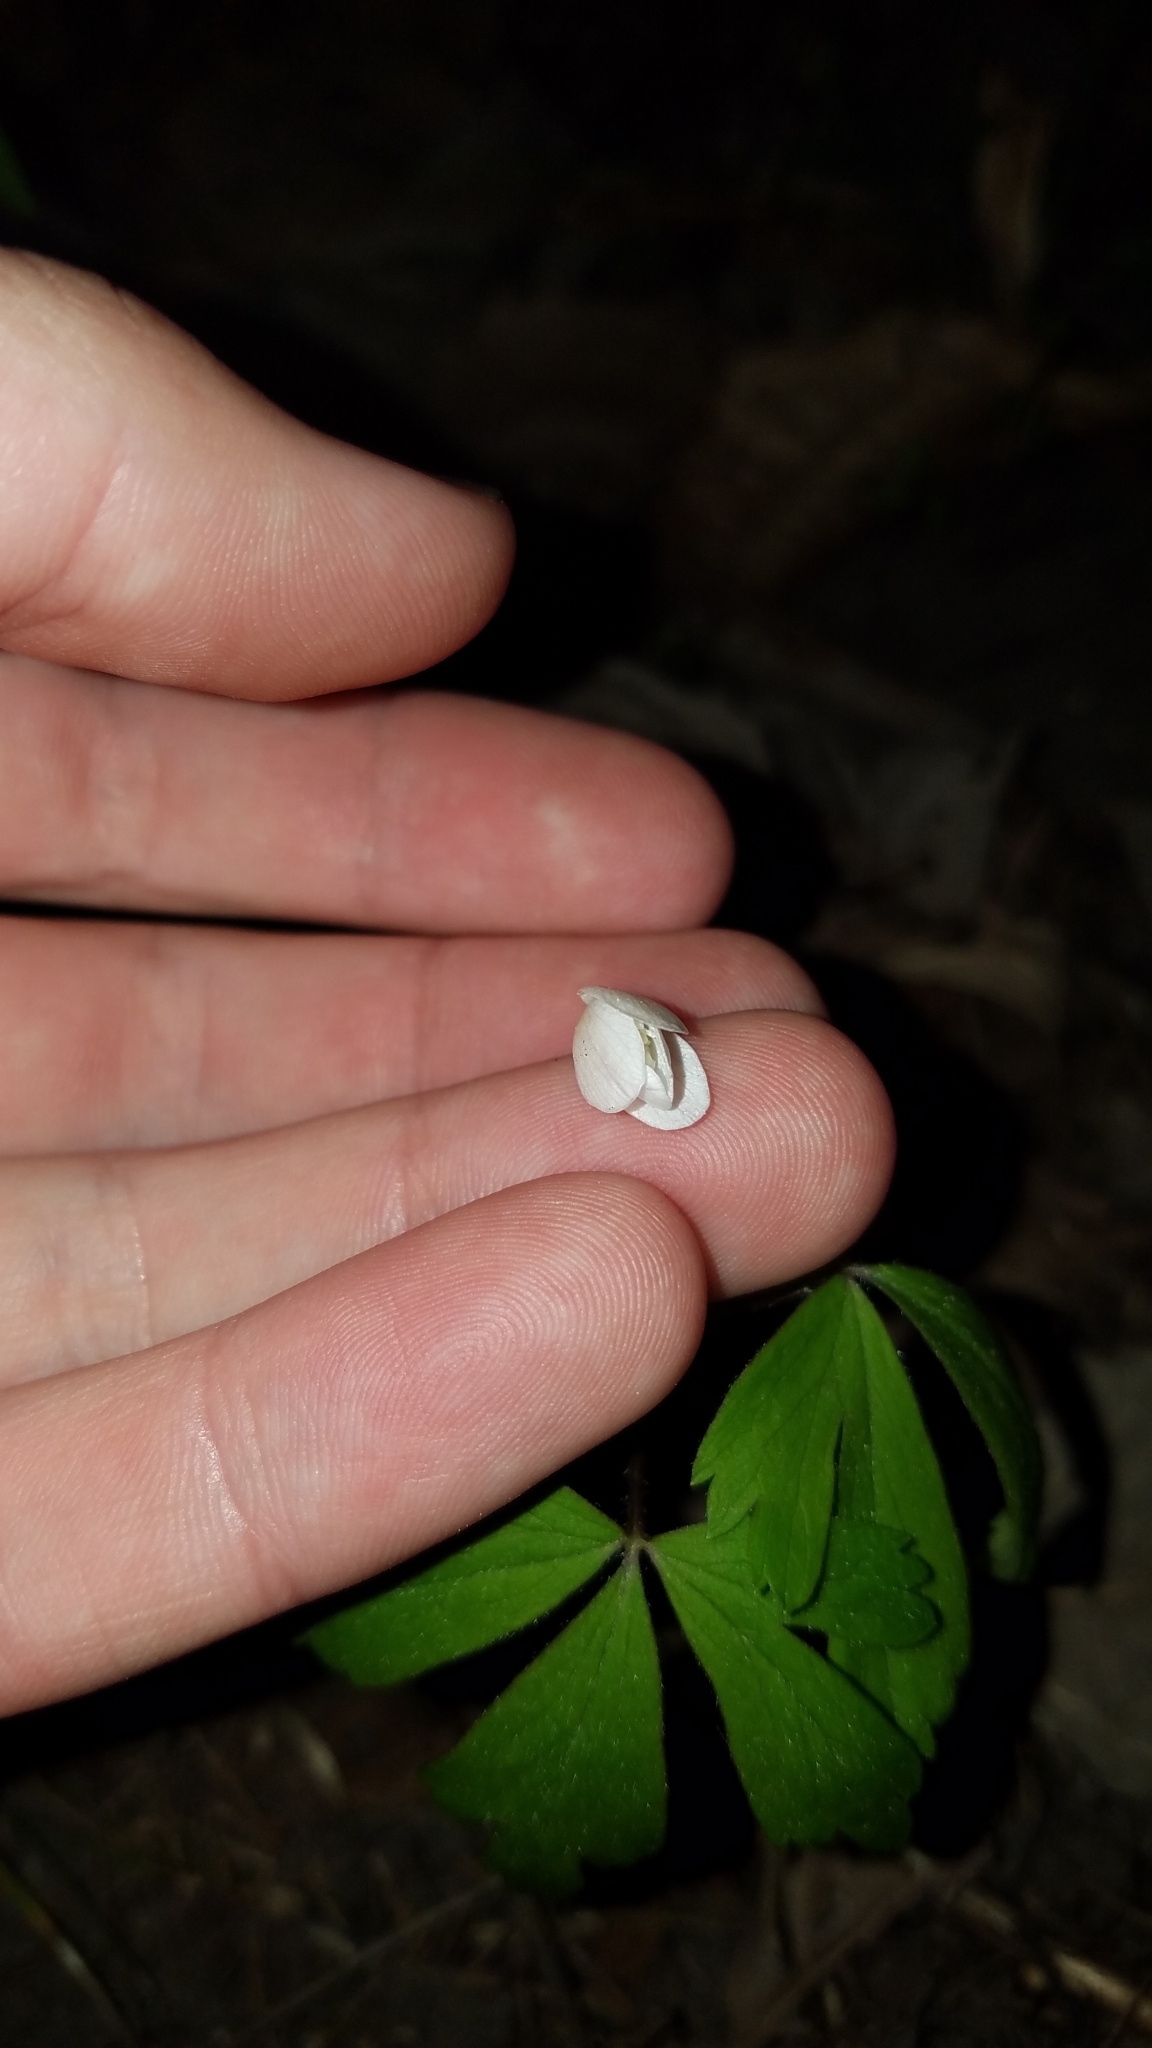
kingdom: Plantae
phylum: Tracheophyta
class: Magnoliopsida
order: Ranunculales
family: Ranunculaceae
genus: Anemone
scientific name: Anemone quinquefolia
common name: Wood anemone
